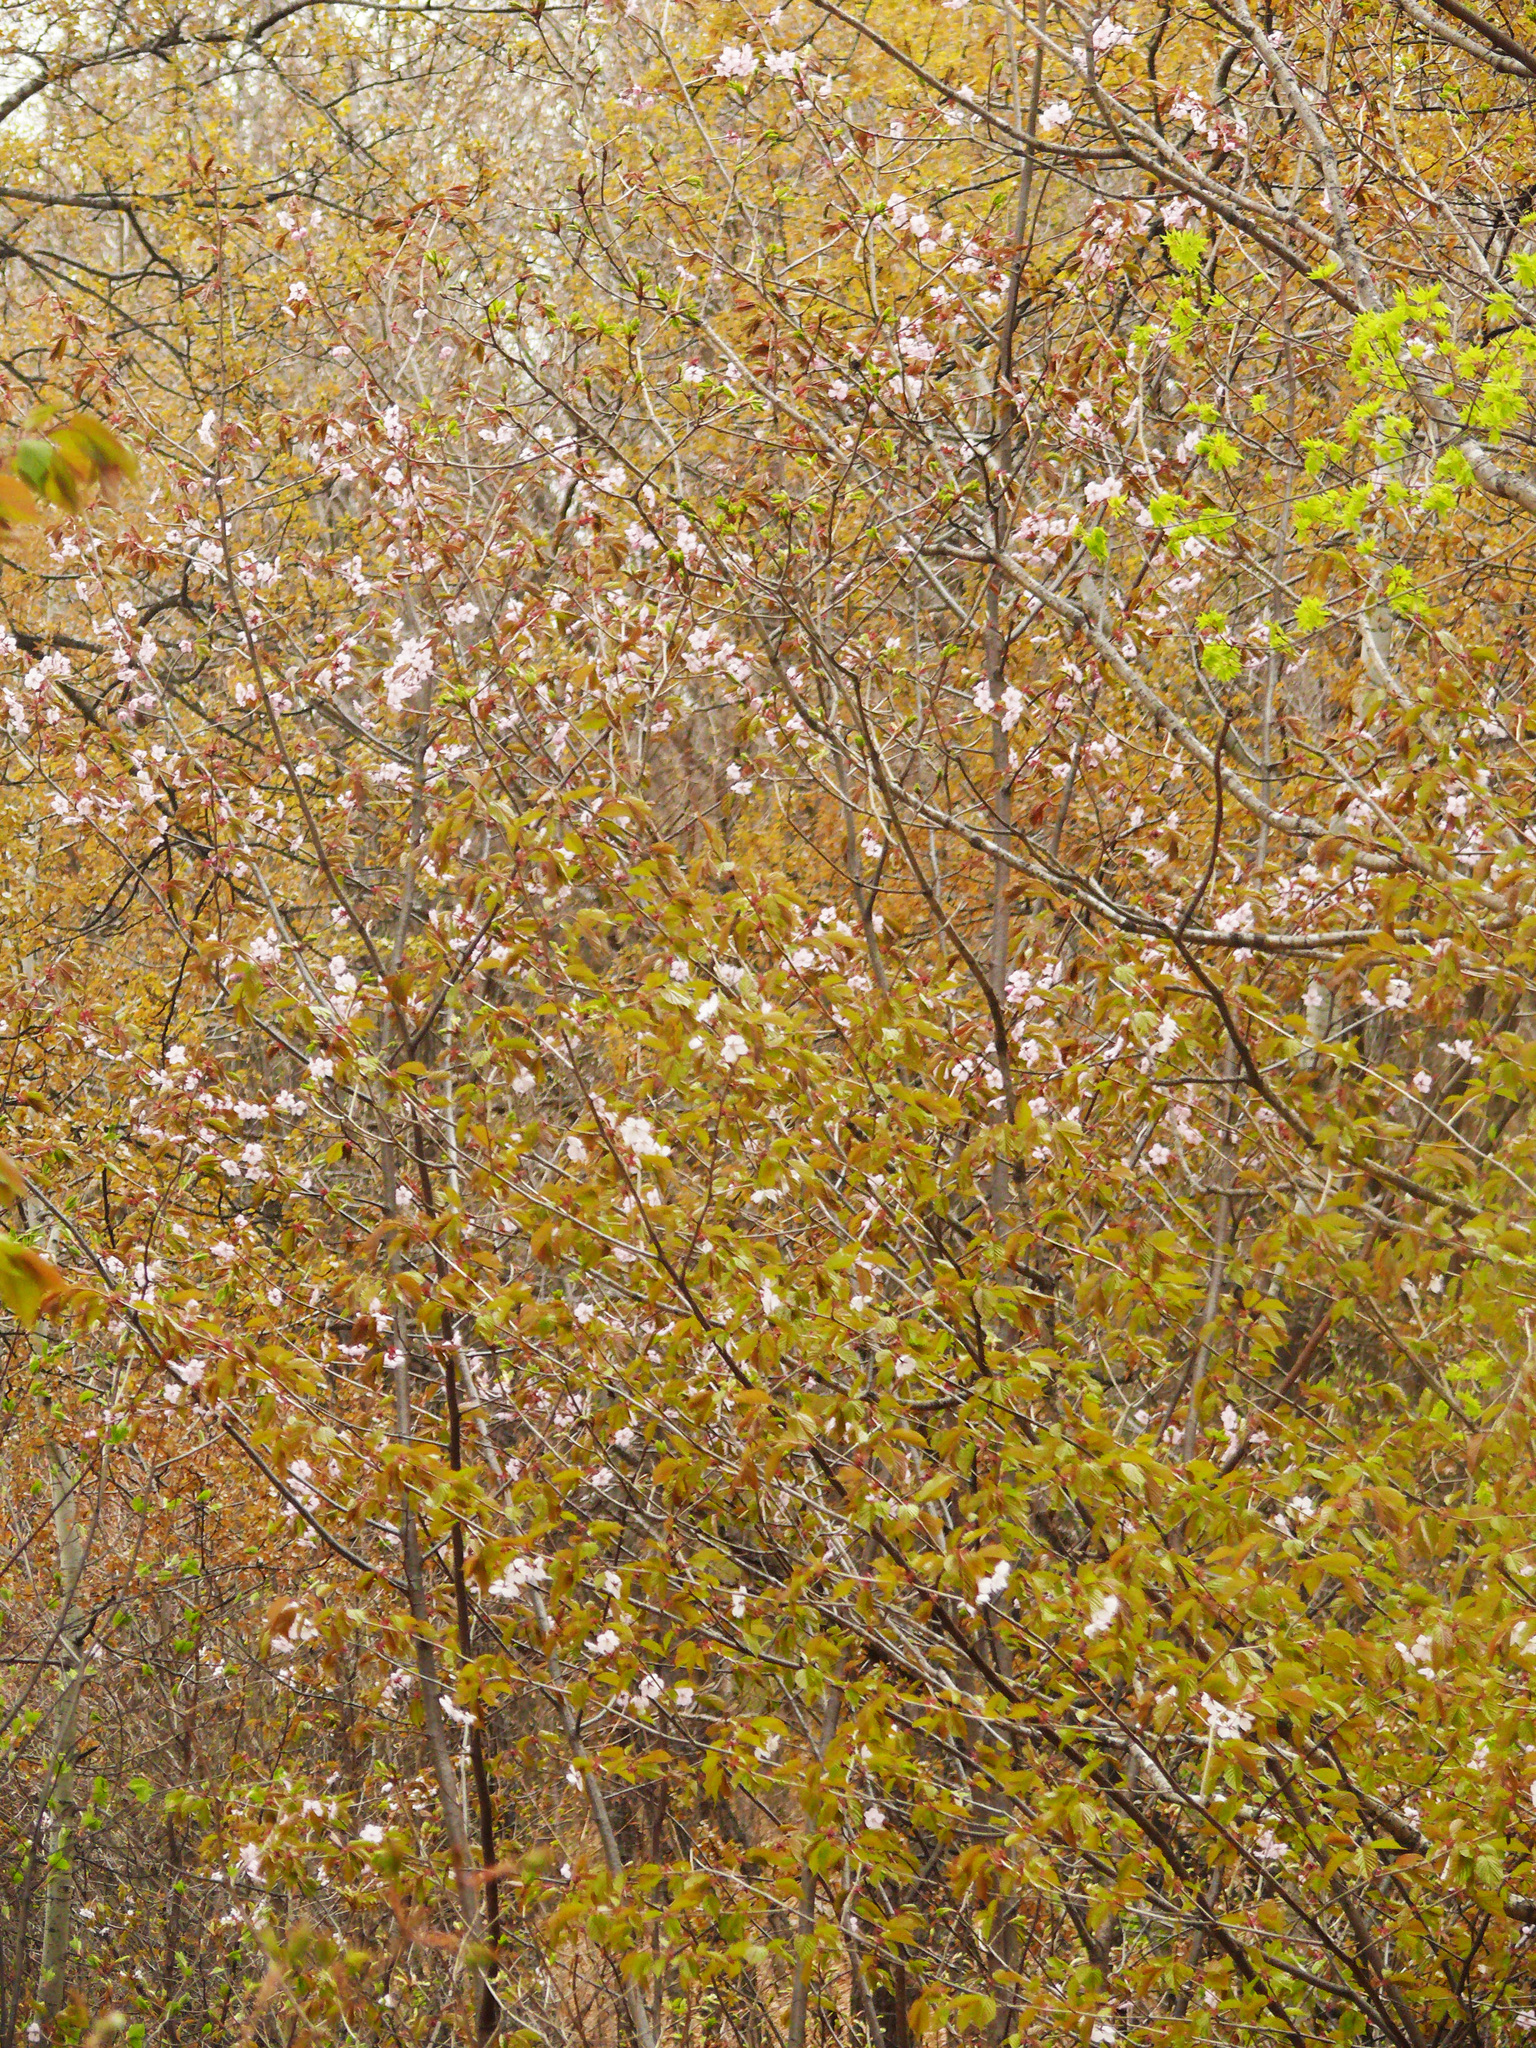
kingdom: Plantae
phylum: Tracheophyta
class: Magnoliopsida
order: Rosales
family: Rosaceae
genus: Prunus
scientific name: Prunus sargentii
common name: Sargent cherry
